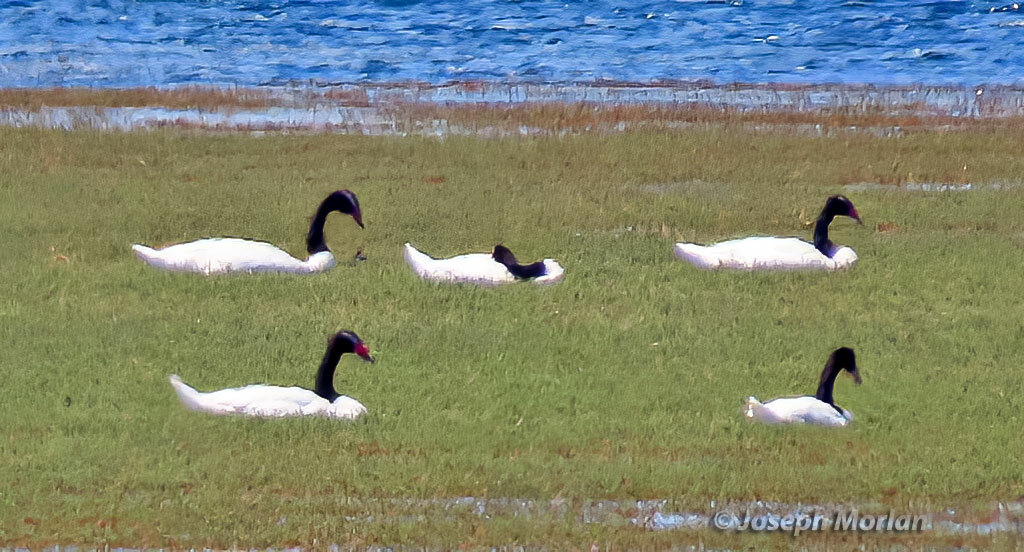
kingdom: Animalia
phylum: Chordata
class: Aves
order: Anseriformes
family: Anatidae
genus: Cygnus
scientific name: Cygnus melancoryphus
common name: Black-necked swan
